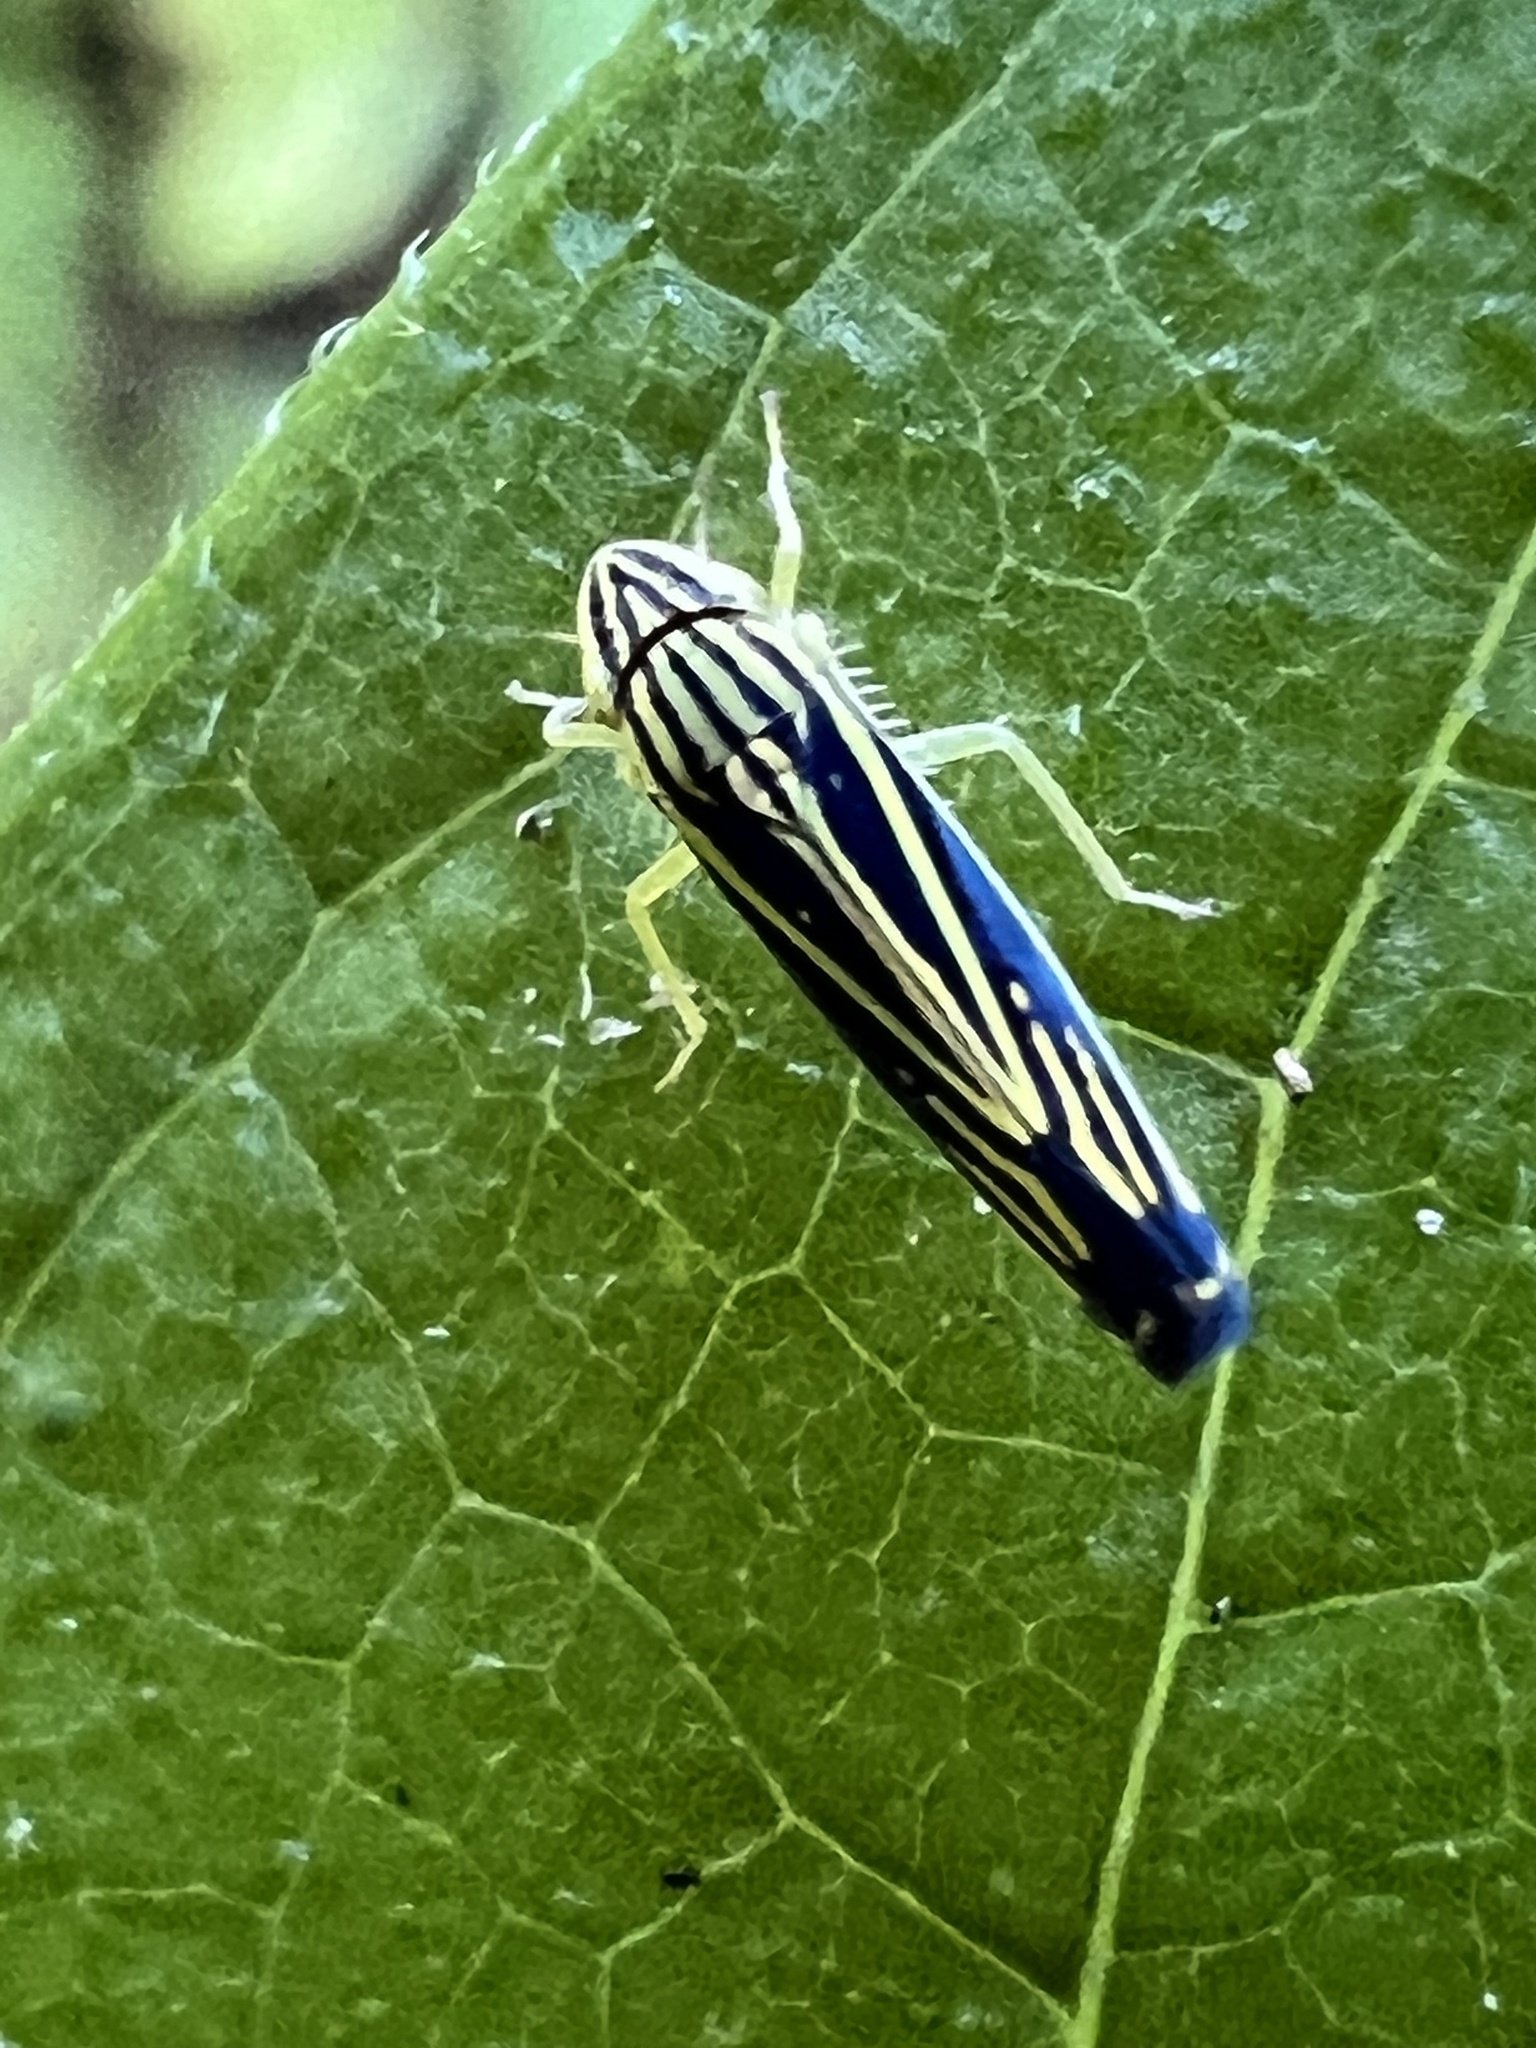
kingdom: Animalia
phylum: Arthropoda
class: Insecta
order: Hemiptera
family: Cicadellidae
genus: Sibovia
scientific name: Sibovia occatoria
